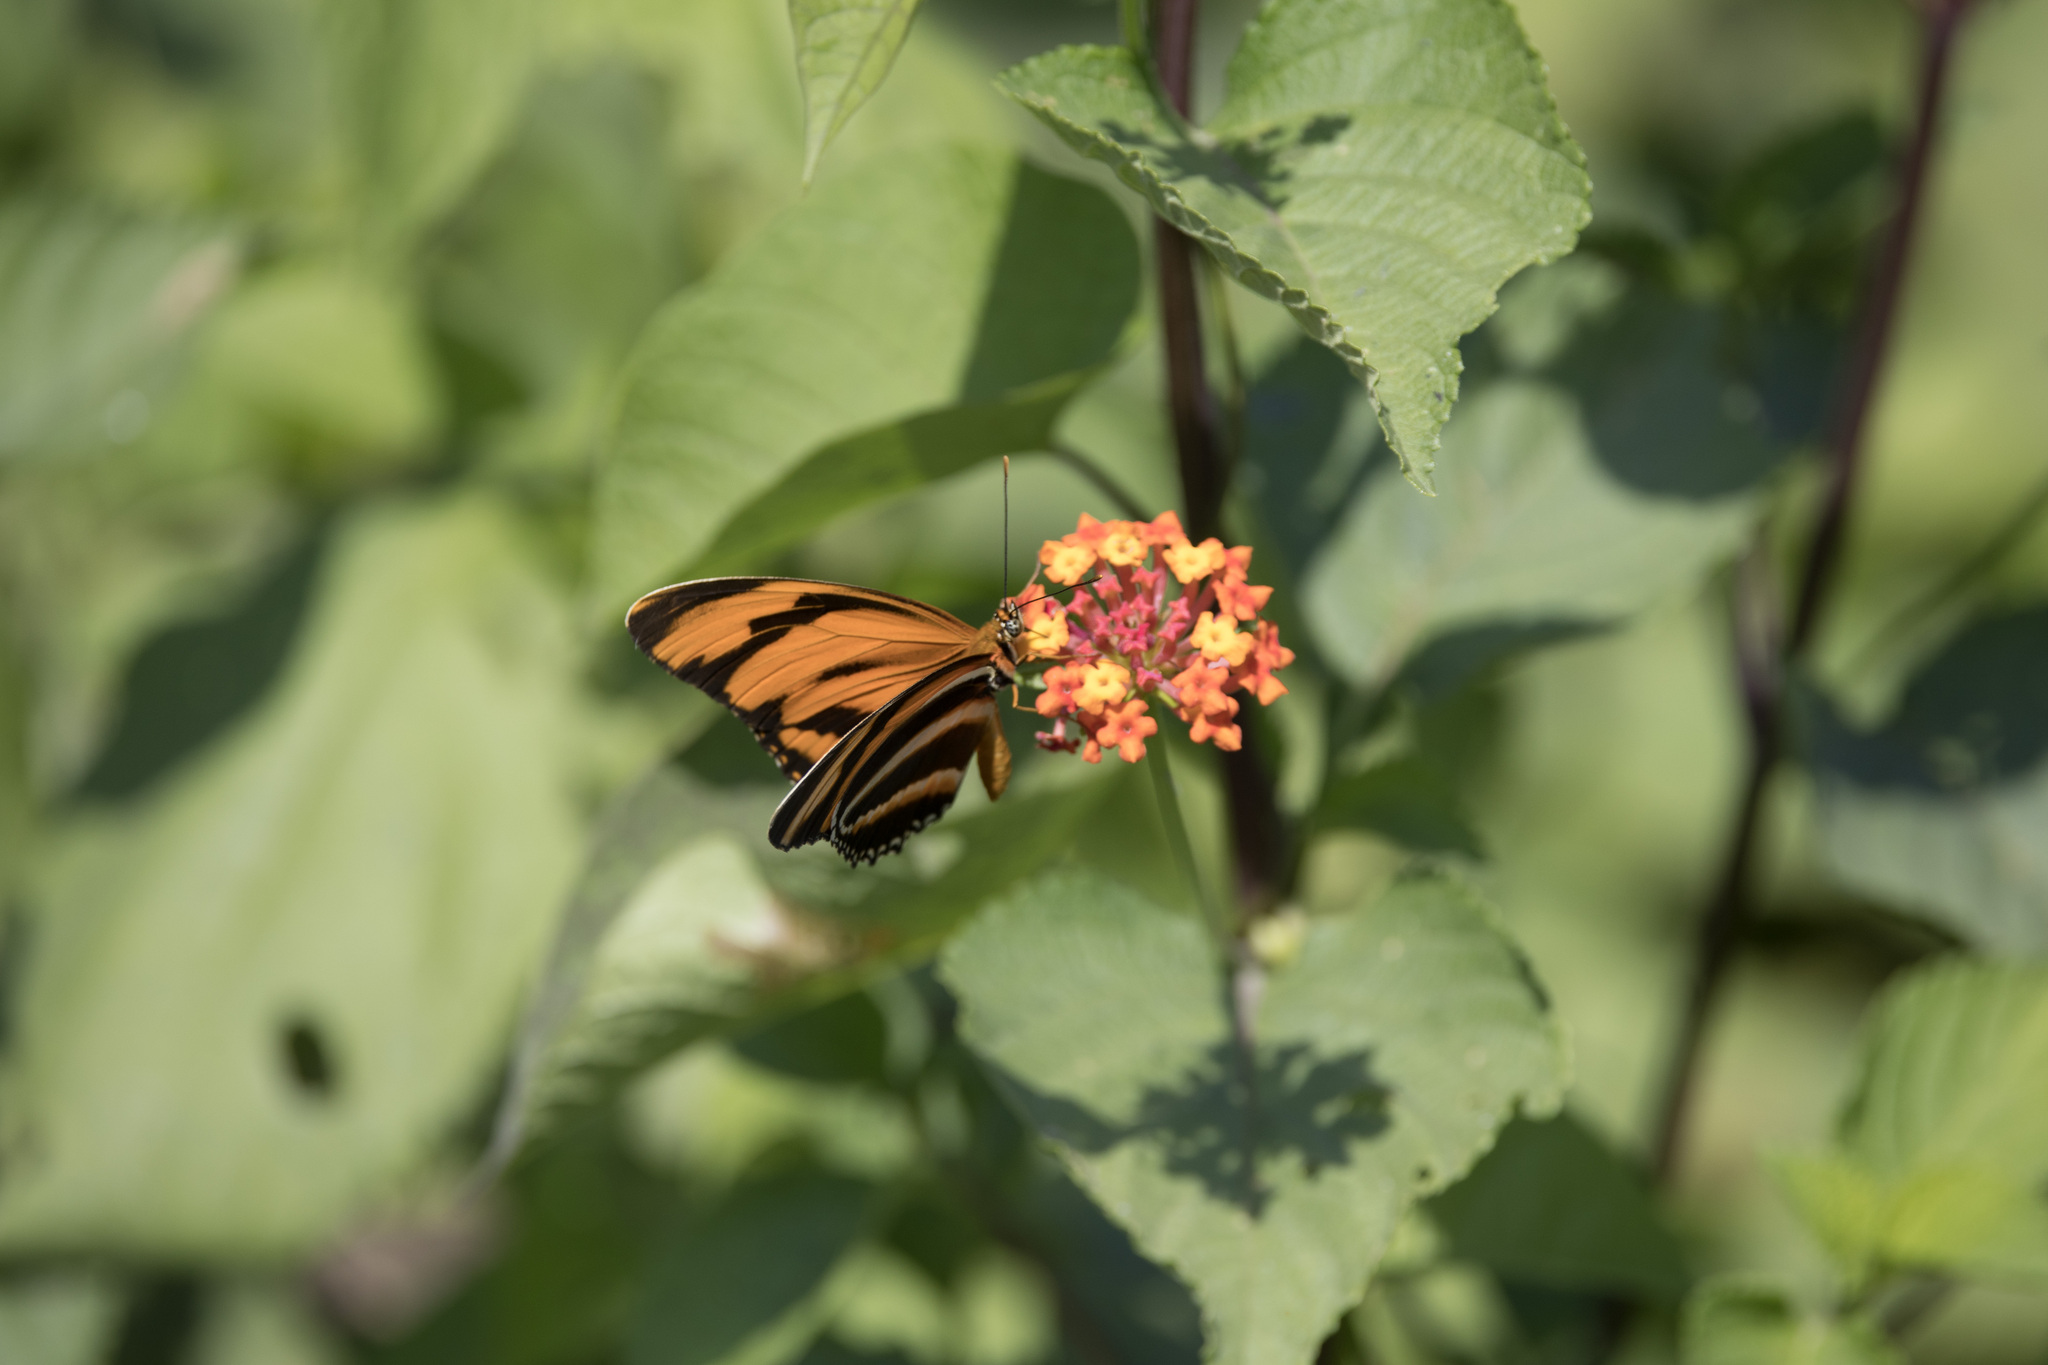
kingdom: Animalia
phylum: Arthropoda
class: Insecta
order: Lepidoptera
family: Nymphalidae
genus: Dryadula
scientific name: Dryadula phaetusa
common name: Banded orange heliconian
